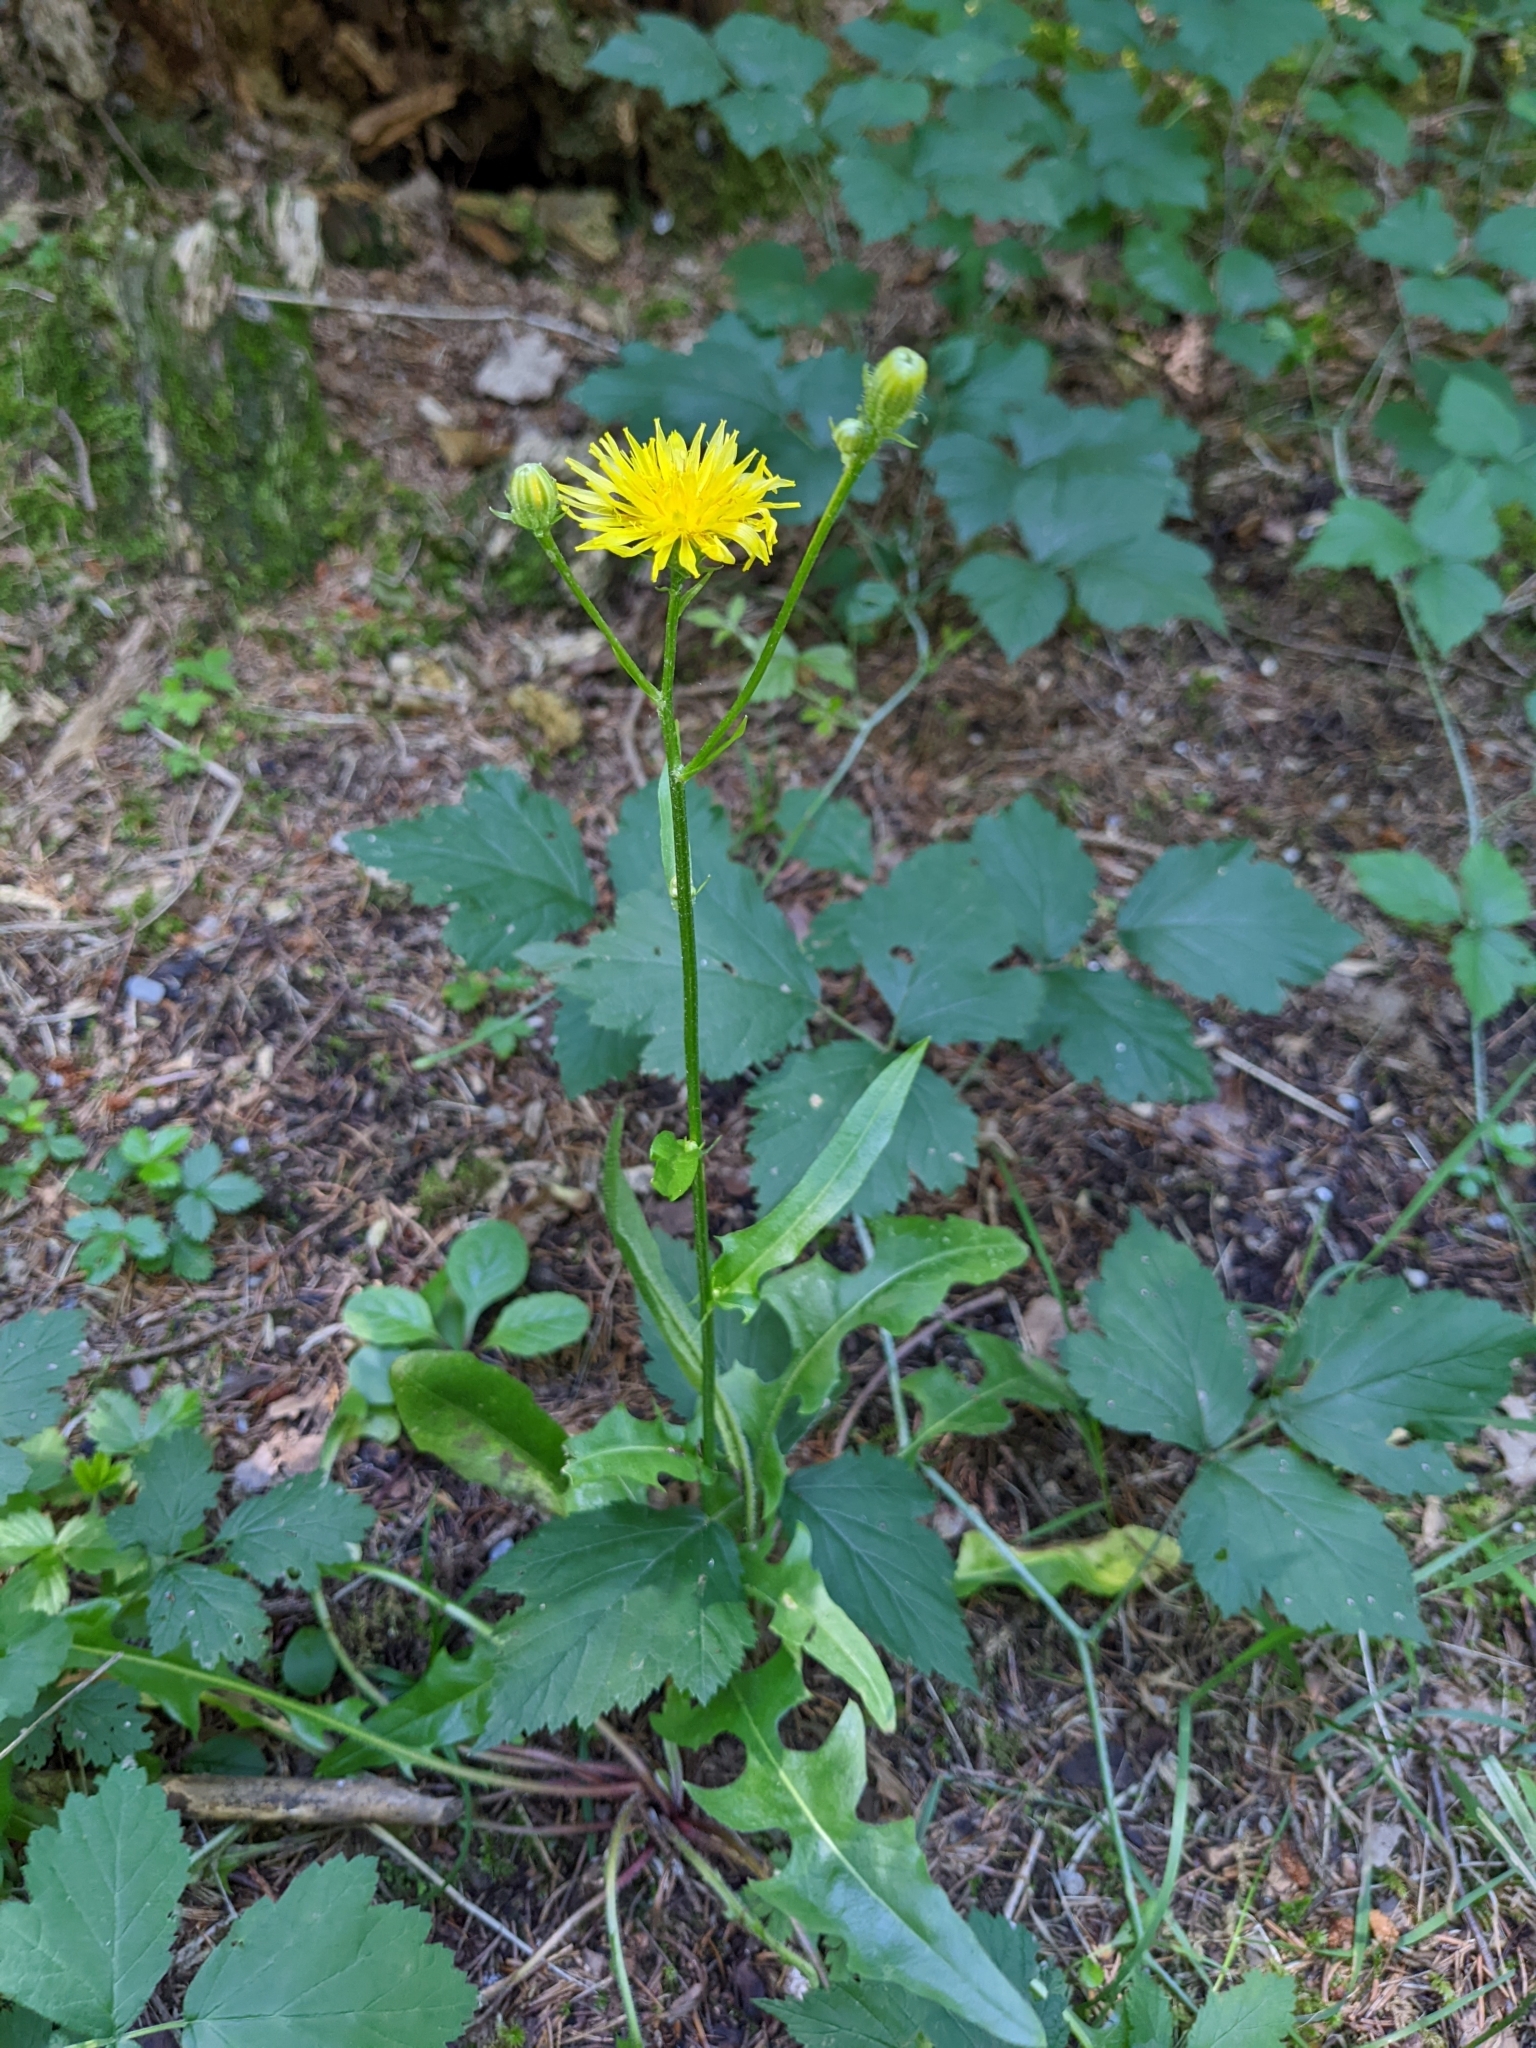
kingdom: Plantae
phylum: Tracheophyta
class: Magnoliopsida
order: Asterales
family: Asteraceae
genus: Crepis
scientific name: Crepis biennis
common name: Rough hawk's-beard
